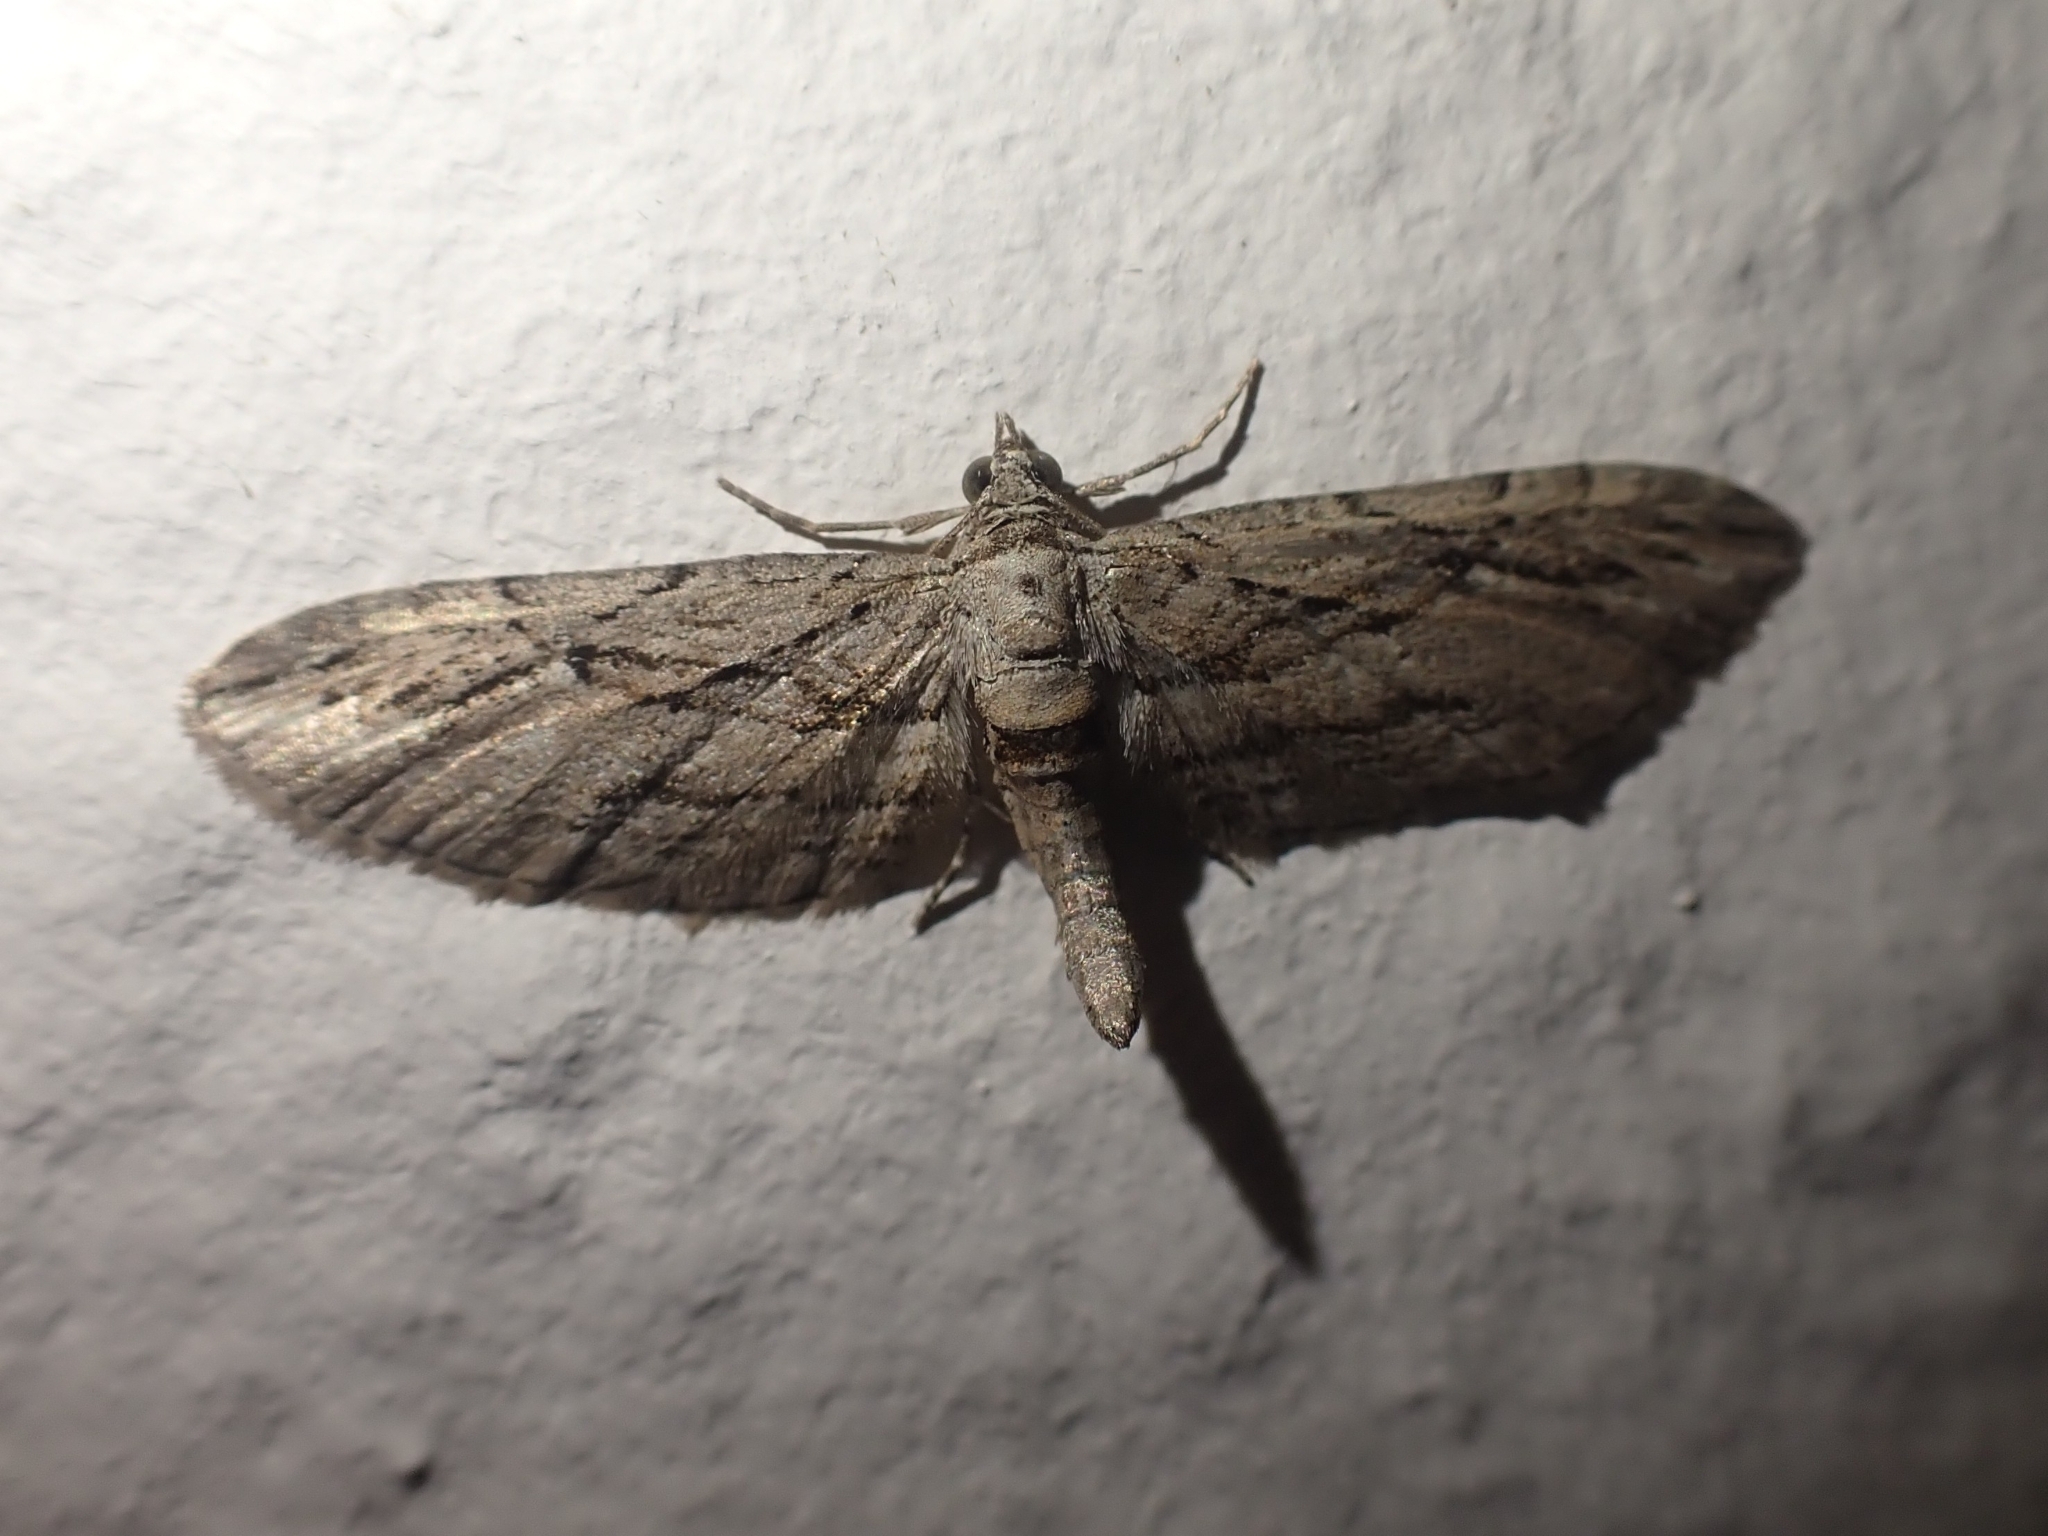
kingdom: Animalia
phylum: Arthropoda
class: Insecta
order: Lepidoptera
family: Geometridae
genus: Eupithecia
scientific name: Eupithecia phoeniceata
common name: Cypress pug
